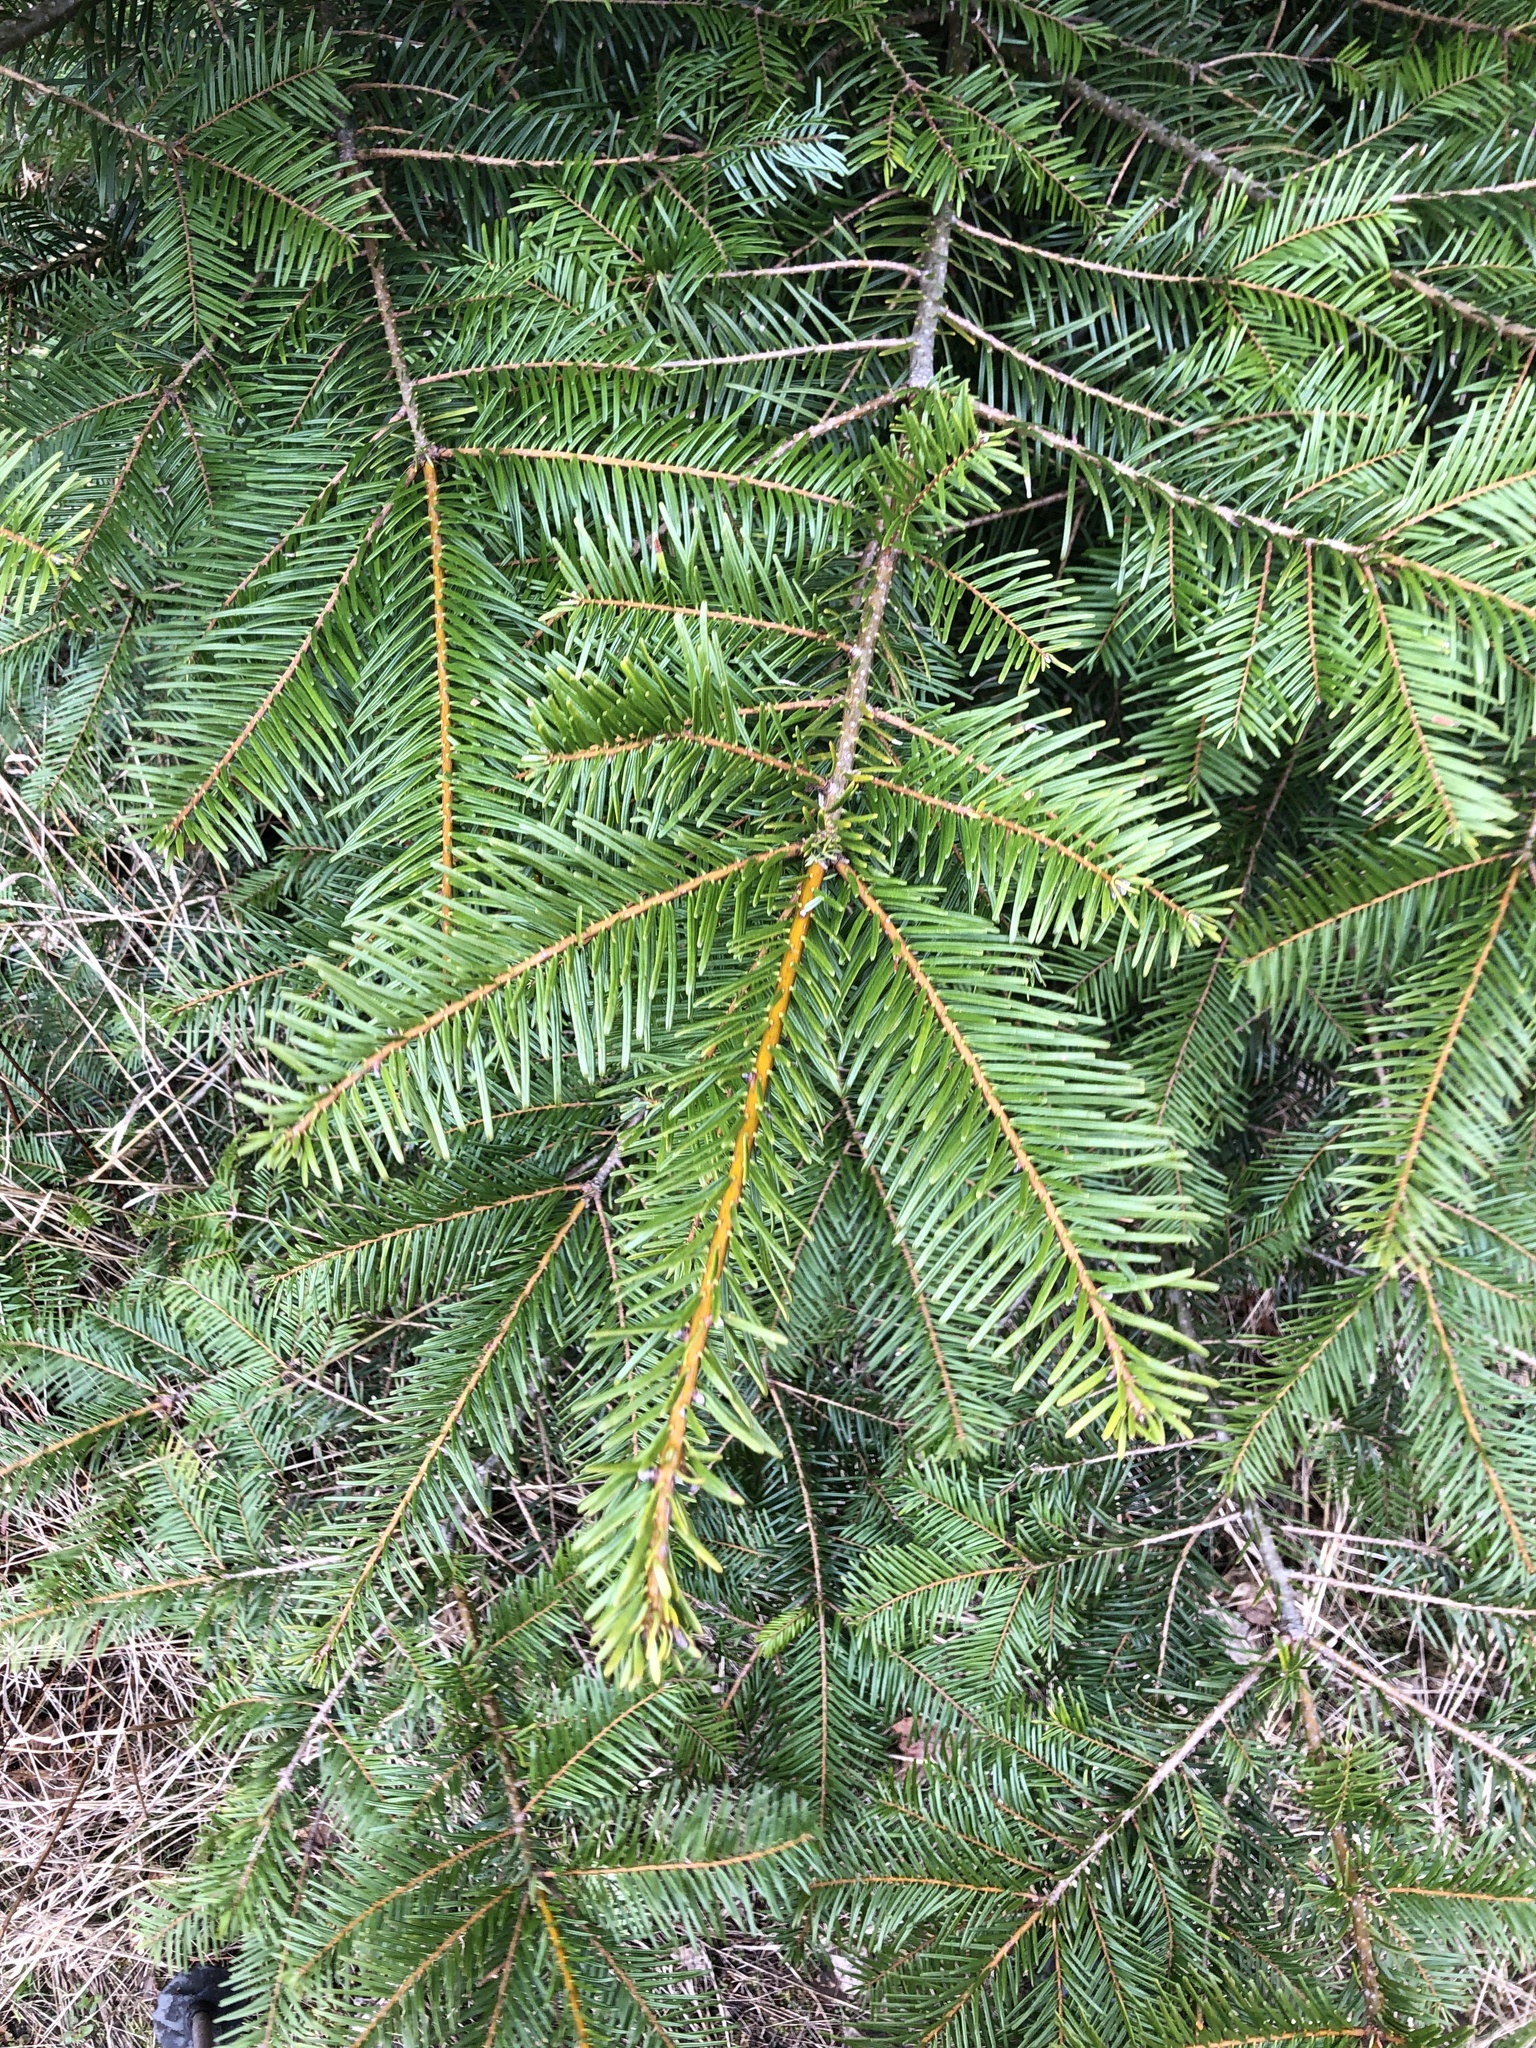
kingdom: Plantae
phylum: Tracheophyta
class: Pinopsida
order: Pinales
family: Pinaceae
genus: Abies
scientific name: Abies grandis
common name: Giant fir
